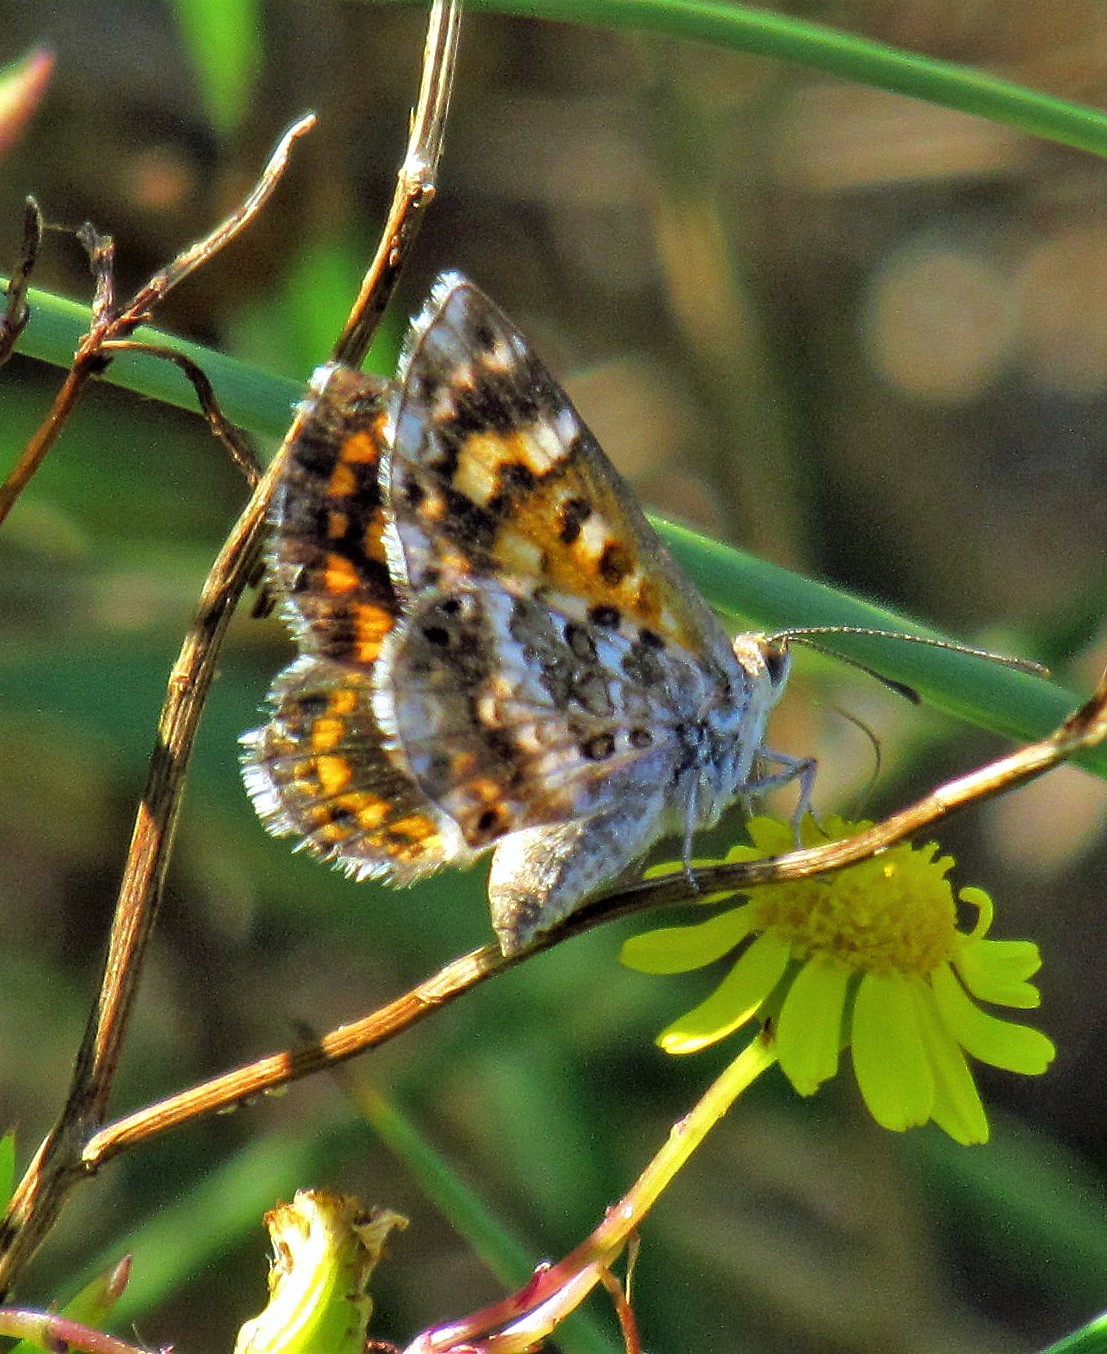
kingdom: Animalia
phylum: Arthropoda
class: Insecta
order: Lepidoptera
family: Lycaenidae
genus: Aricoris
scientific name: Aricoris signata
